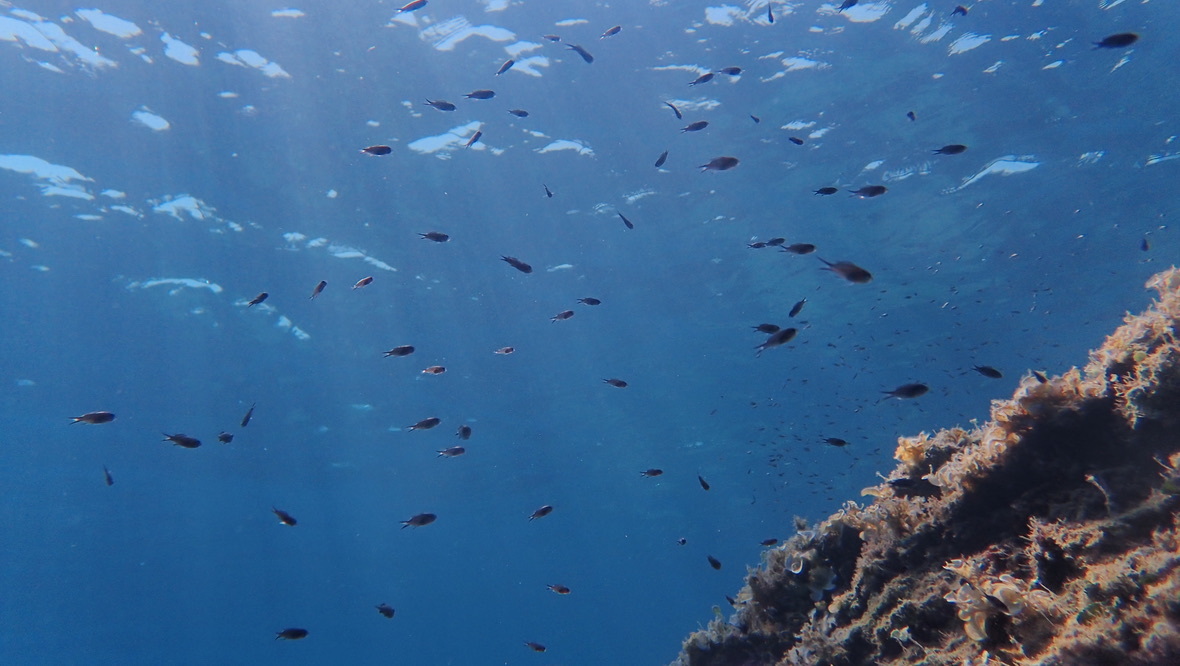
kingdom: Animalia
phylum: Chordata
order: Perciformes
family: Pomacentridae
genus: Chromis
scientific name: Chromis chromis
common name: Damselfish
